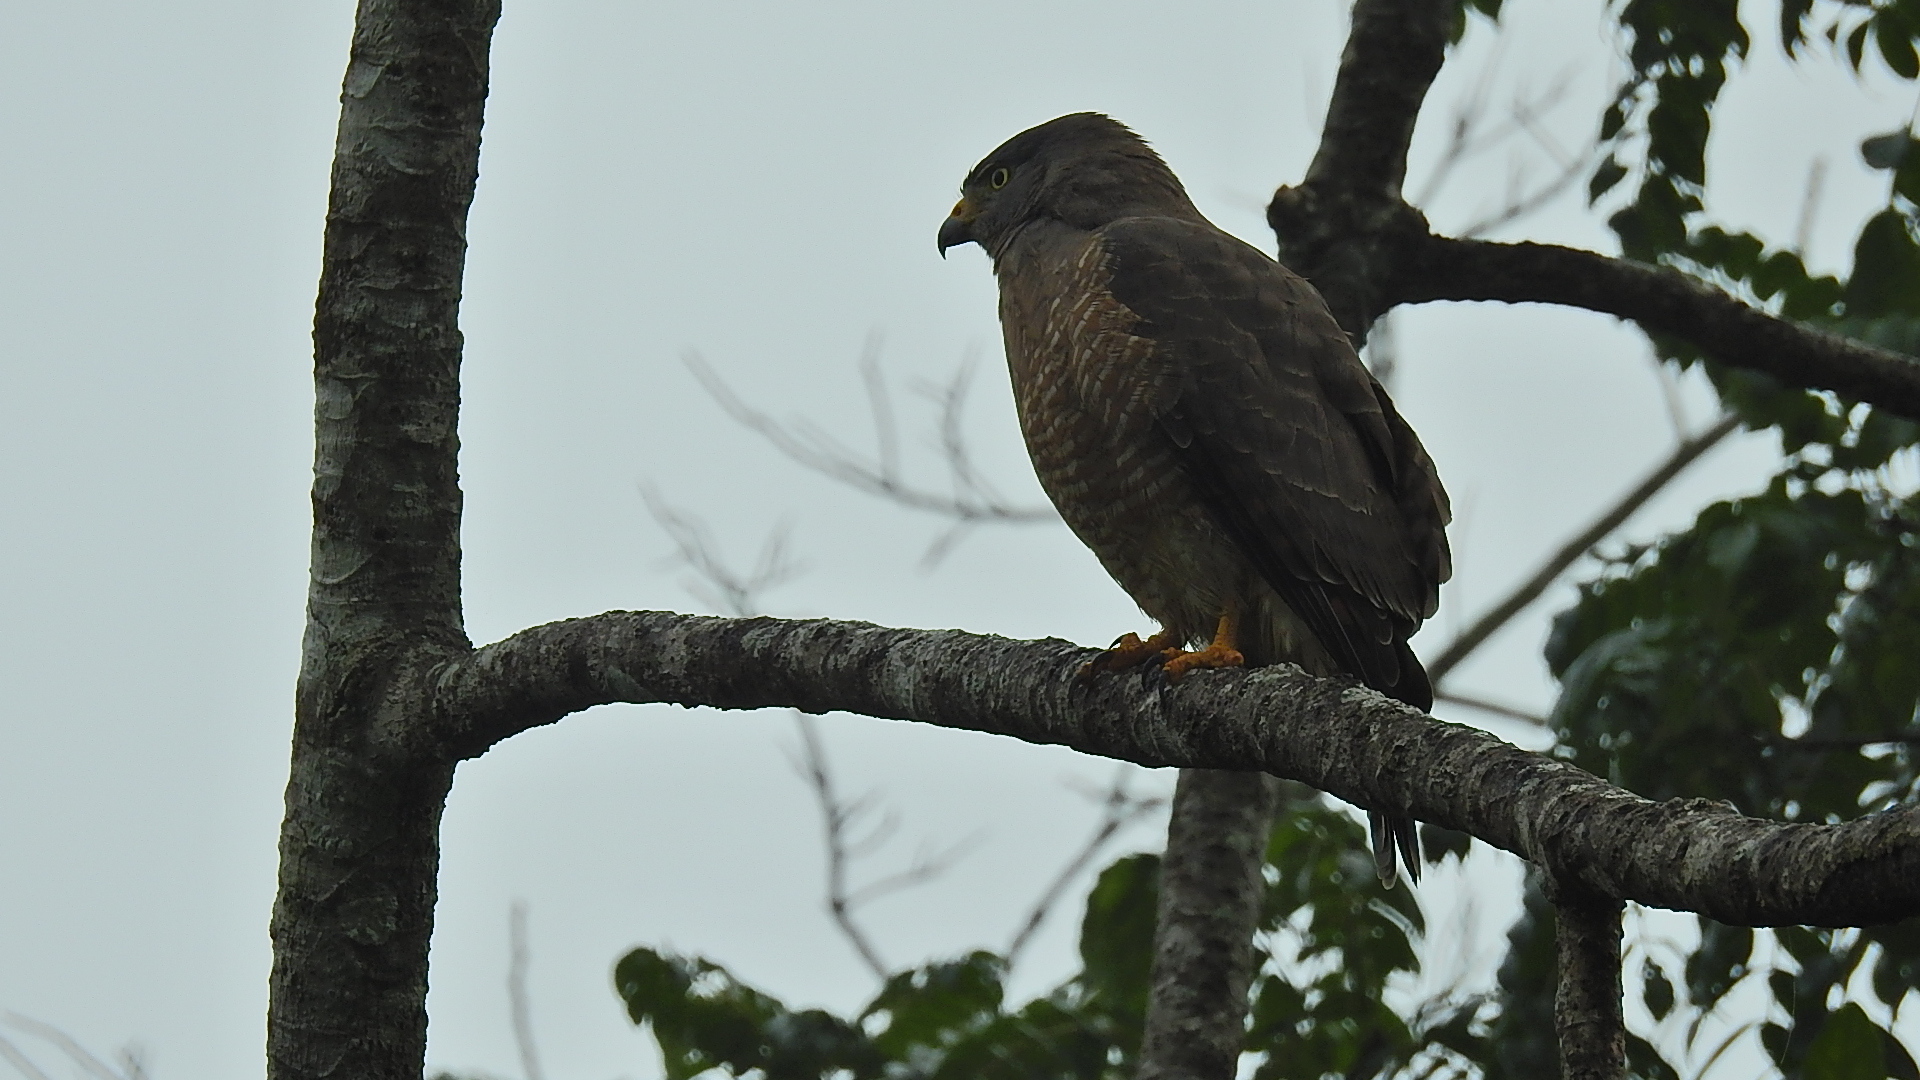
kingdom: Animalia
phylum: Chordata
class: Aves
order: Accipitriformes
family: Accipitridae
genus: Rupornis
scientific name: Rupornis magnirostris
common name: Roadside hawk
